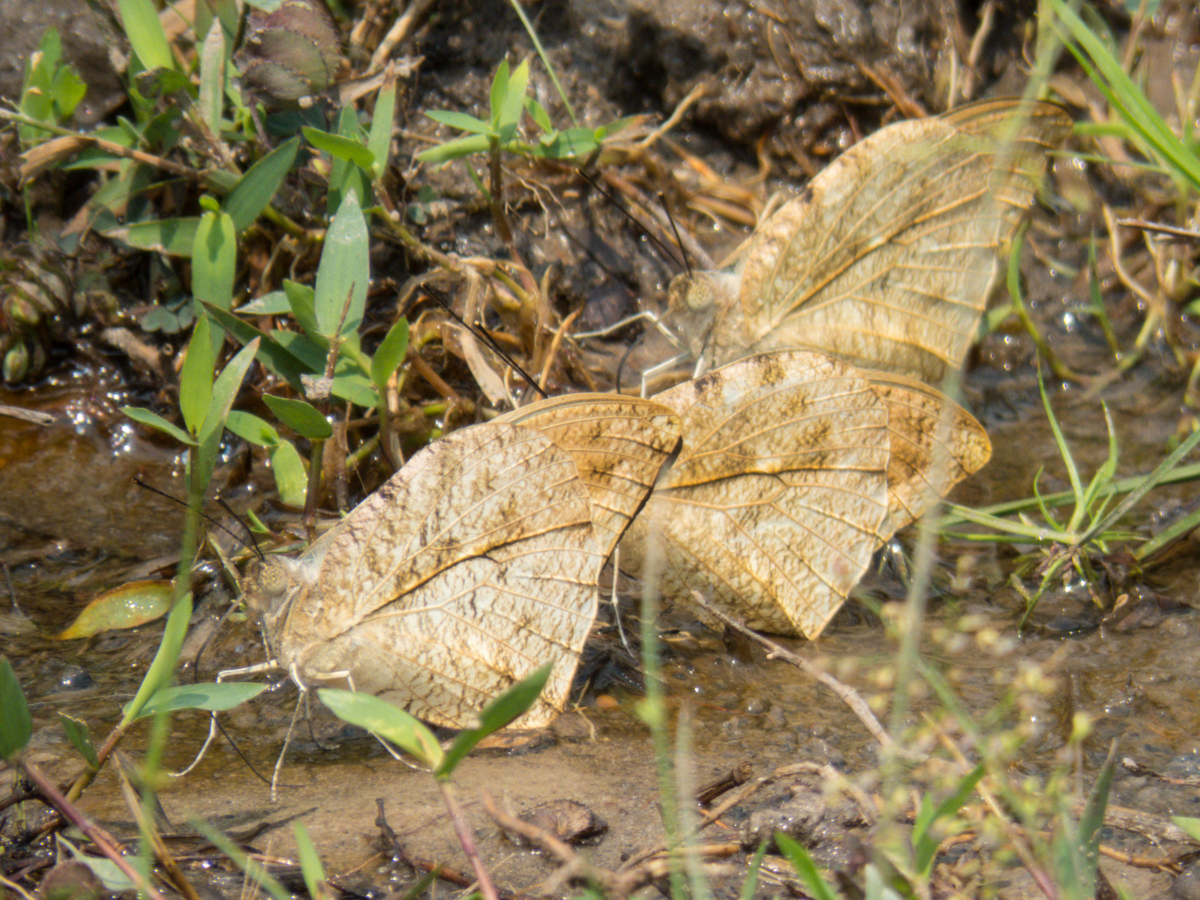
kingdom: Animalia
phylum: Arthropoda
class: Insecta
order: Lepidoptera
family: Pieridae
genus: Hebomoia
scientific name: Hebomoia glaucippe
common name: Great orange tip
